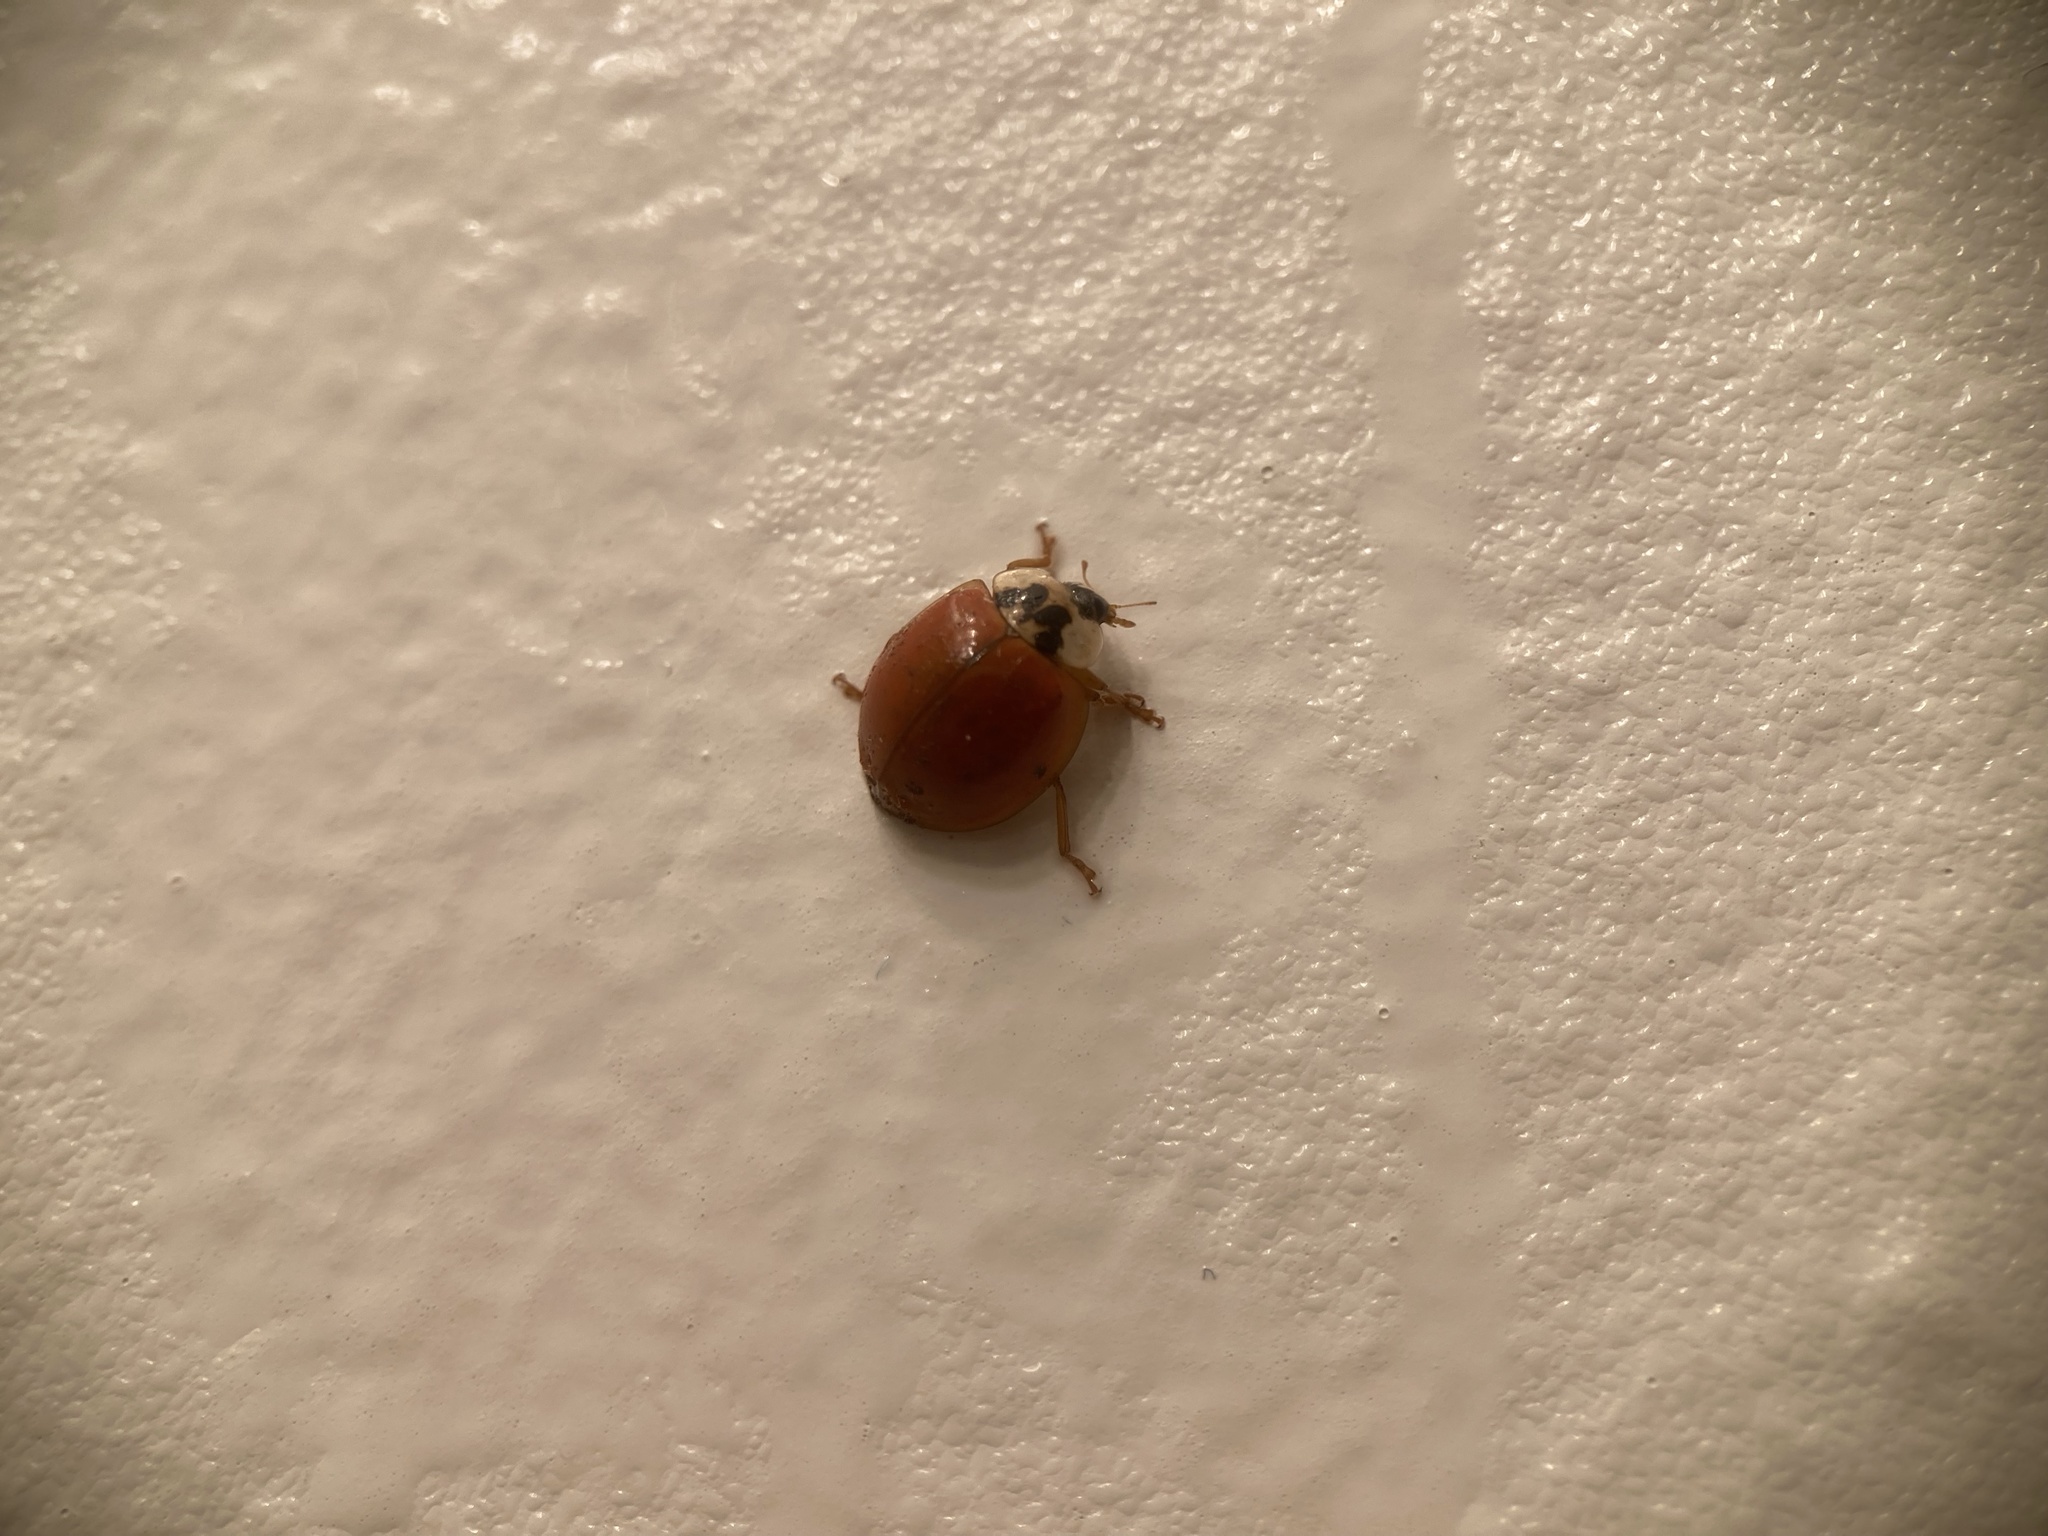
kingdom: Animalia
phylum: Arthropoda
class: Insecta
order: Coleoptera
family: Coccinellidae
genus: Harmonia
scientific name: Harmonia axyridis
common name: Harlequin ladybird
